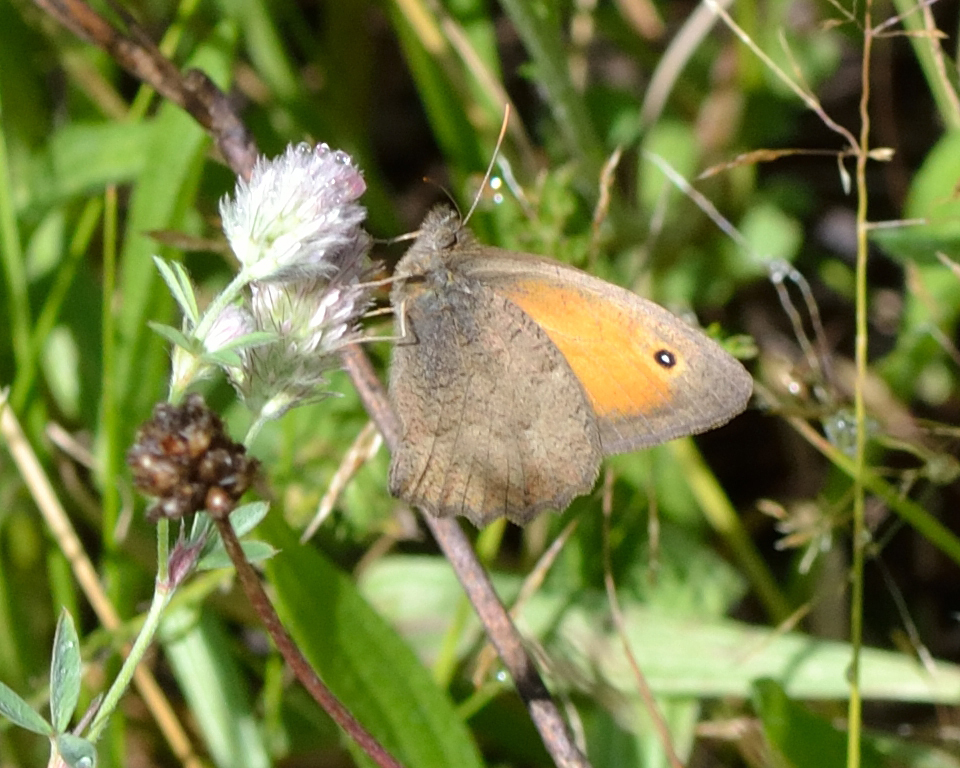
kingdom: Animalia
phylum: Arthropoda
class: Insecta
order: Lepidoptera
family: Nymphalidae
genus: Hyponephele
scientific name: Hyponephele lycaon
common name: Dusky meadow brown
